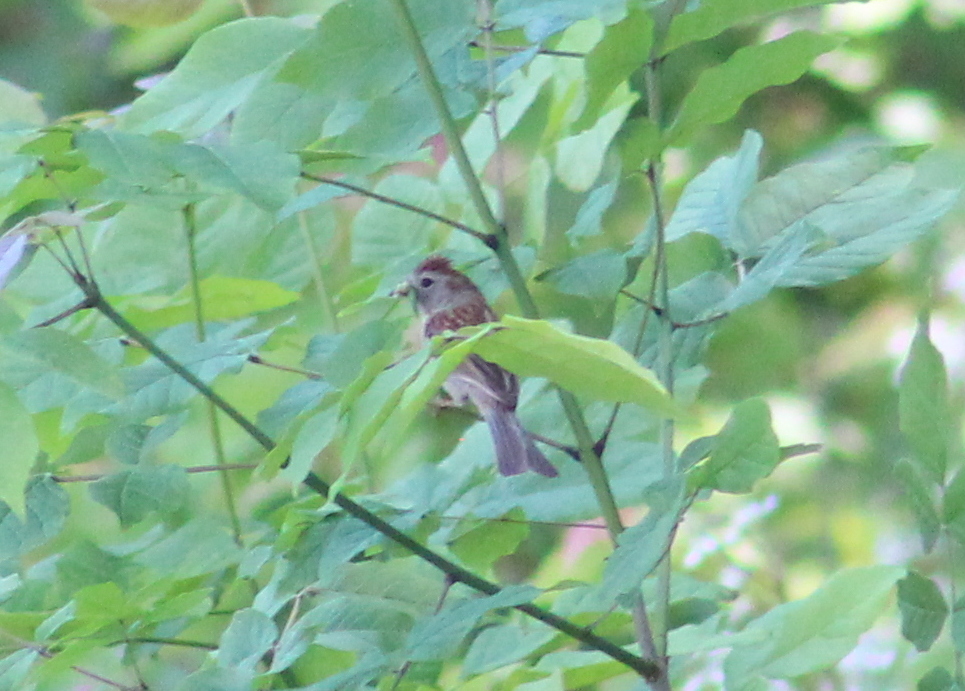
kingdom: Animalia
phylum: Chordata
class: Aves
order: Passeriformes
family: Passerellidae
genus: Spizella
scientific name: Spizella pusilla
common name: Field sparrow
